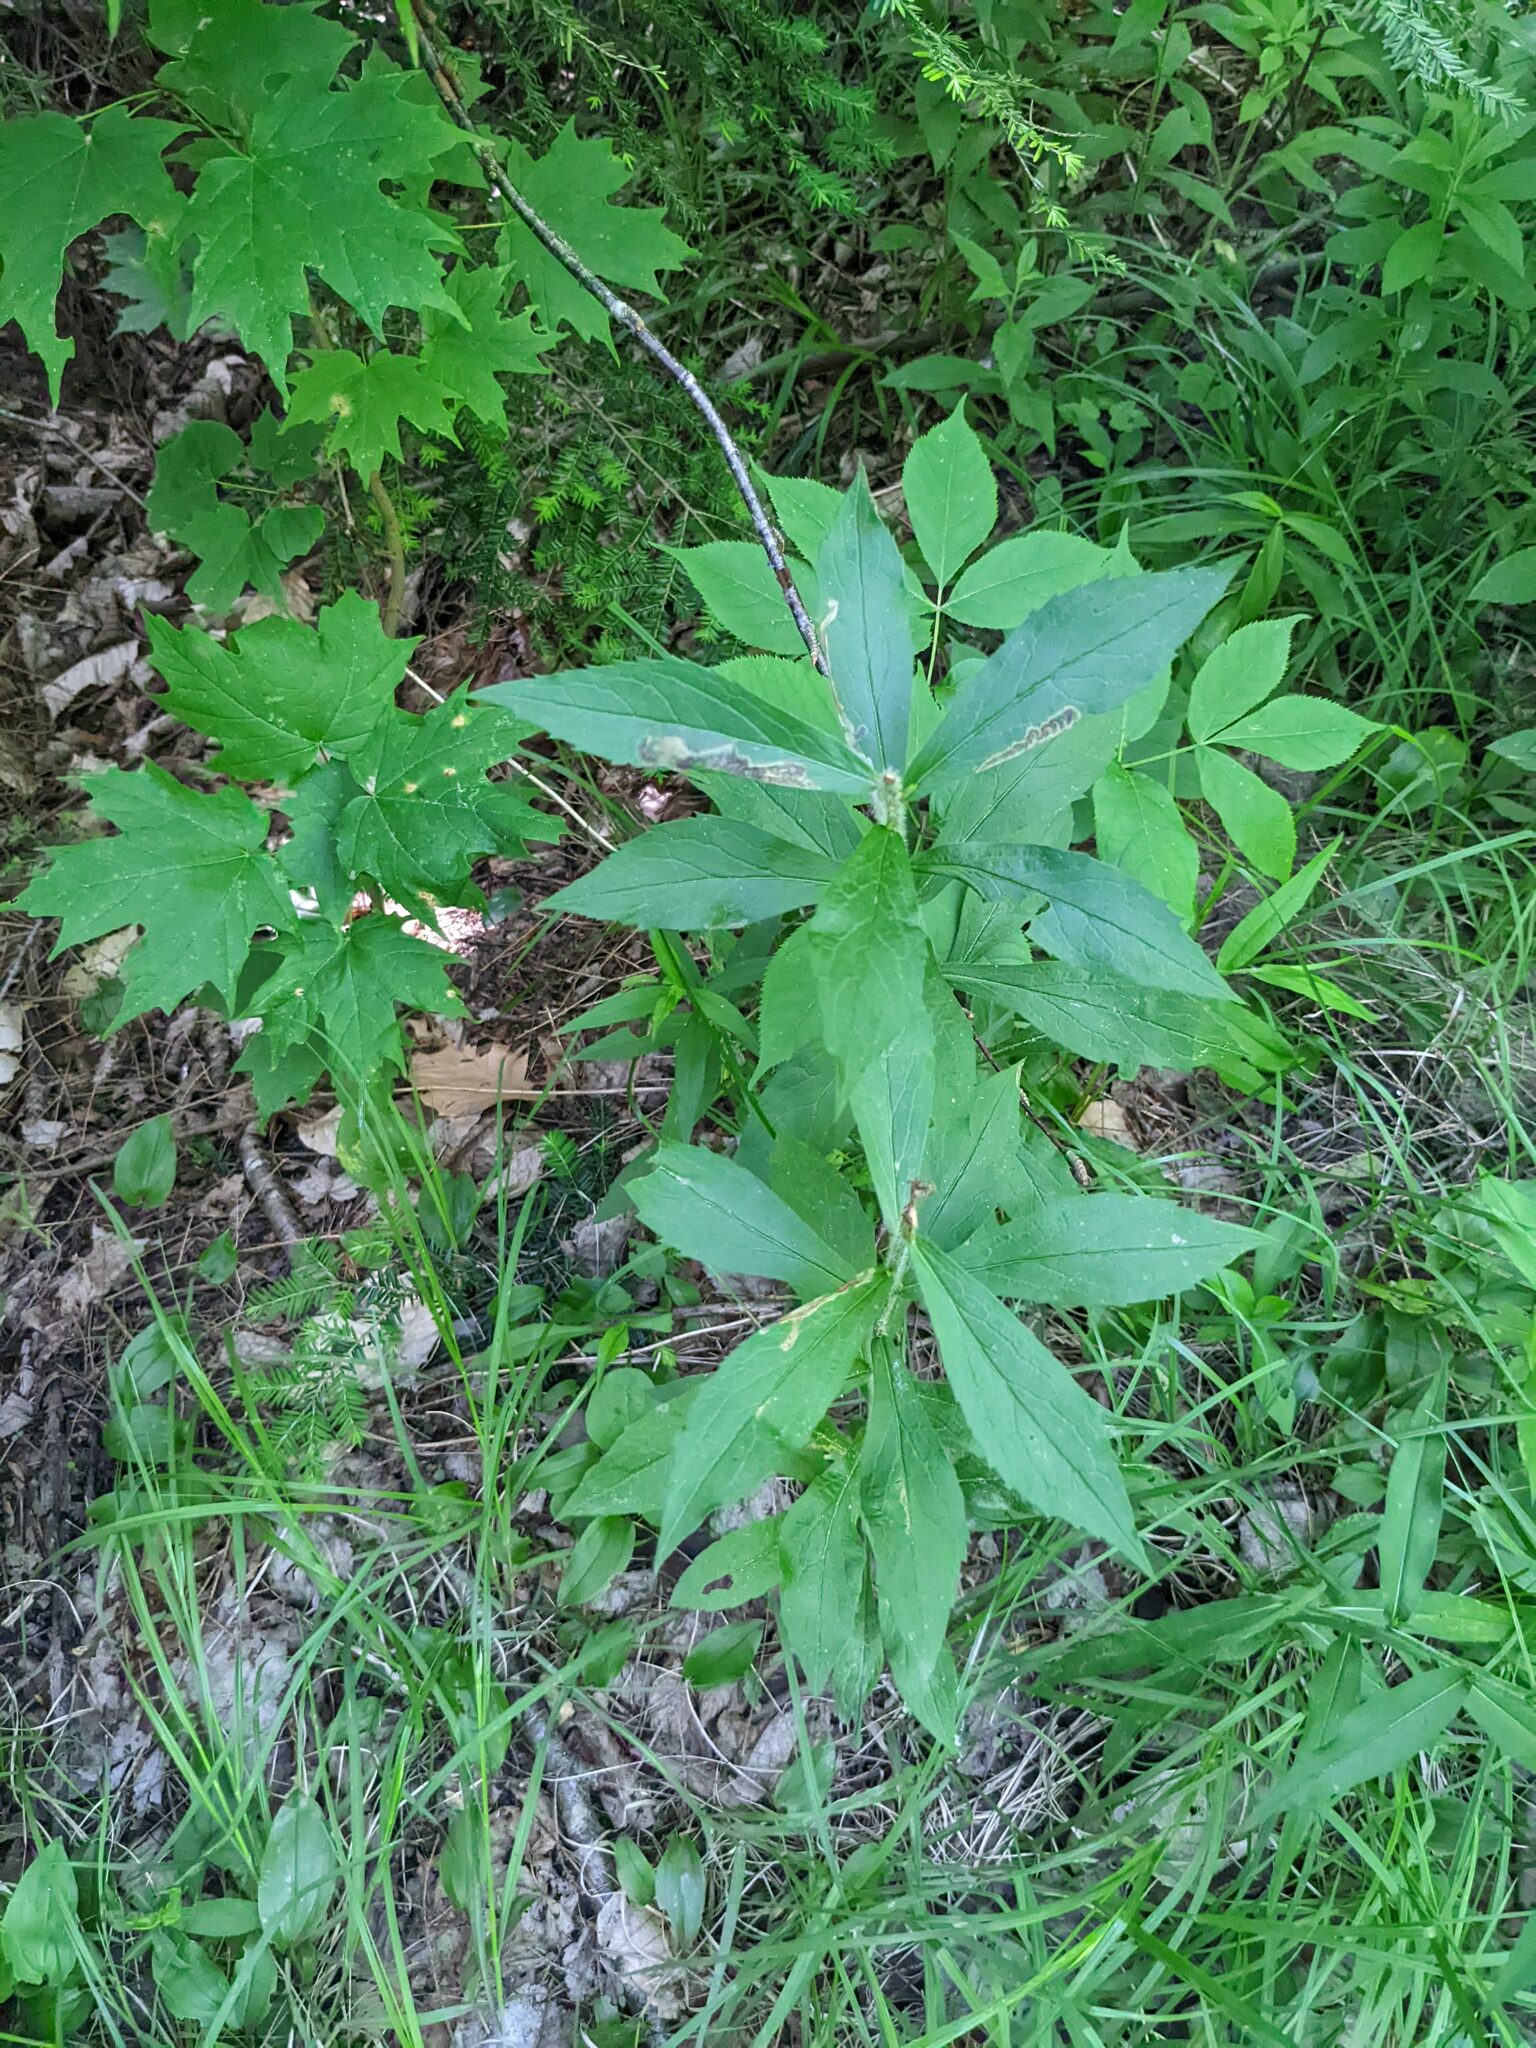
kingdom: Plantae
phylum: Tracheophyta
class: Magnoliopsida
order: Asterales
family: Asteraceae
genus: Oclemena
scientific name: Oclemena acuminata
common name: Mountain aster
